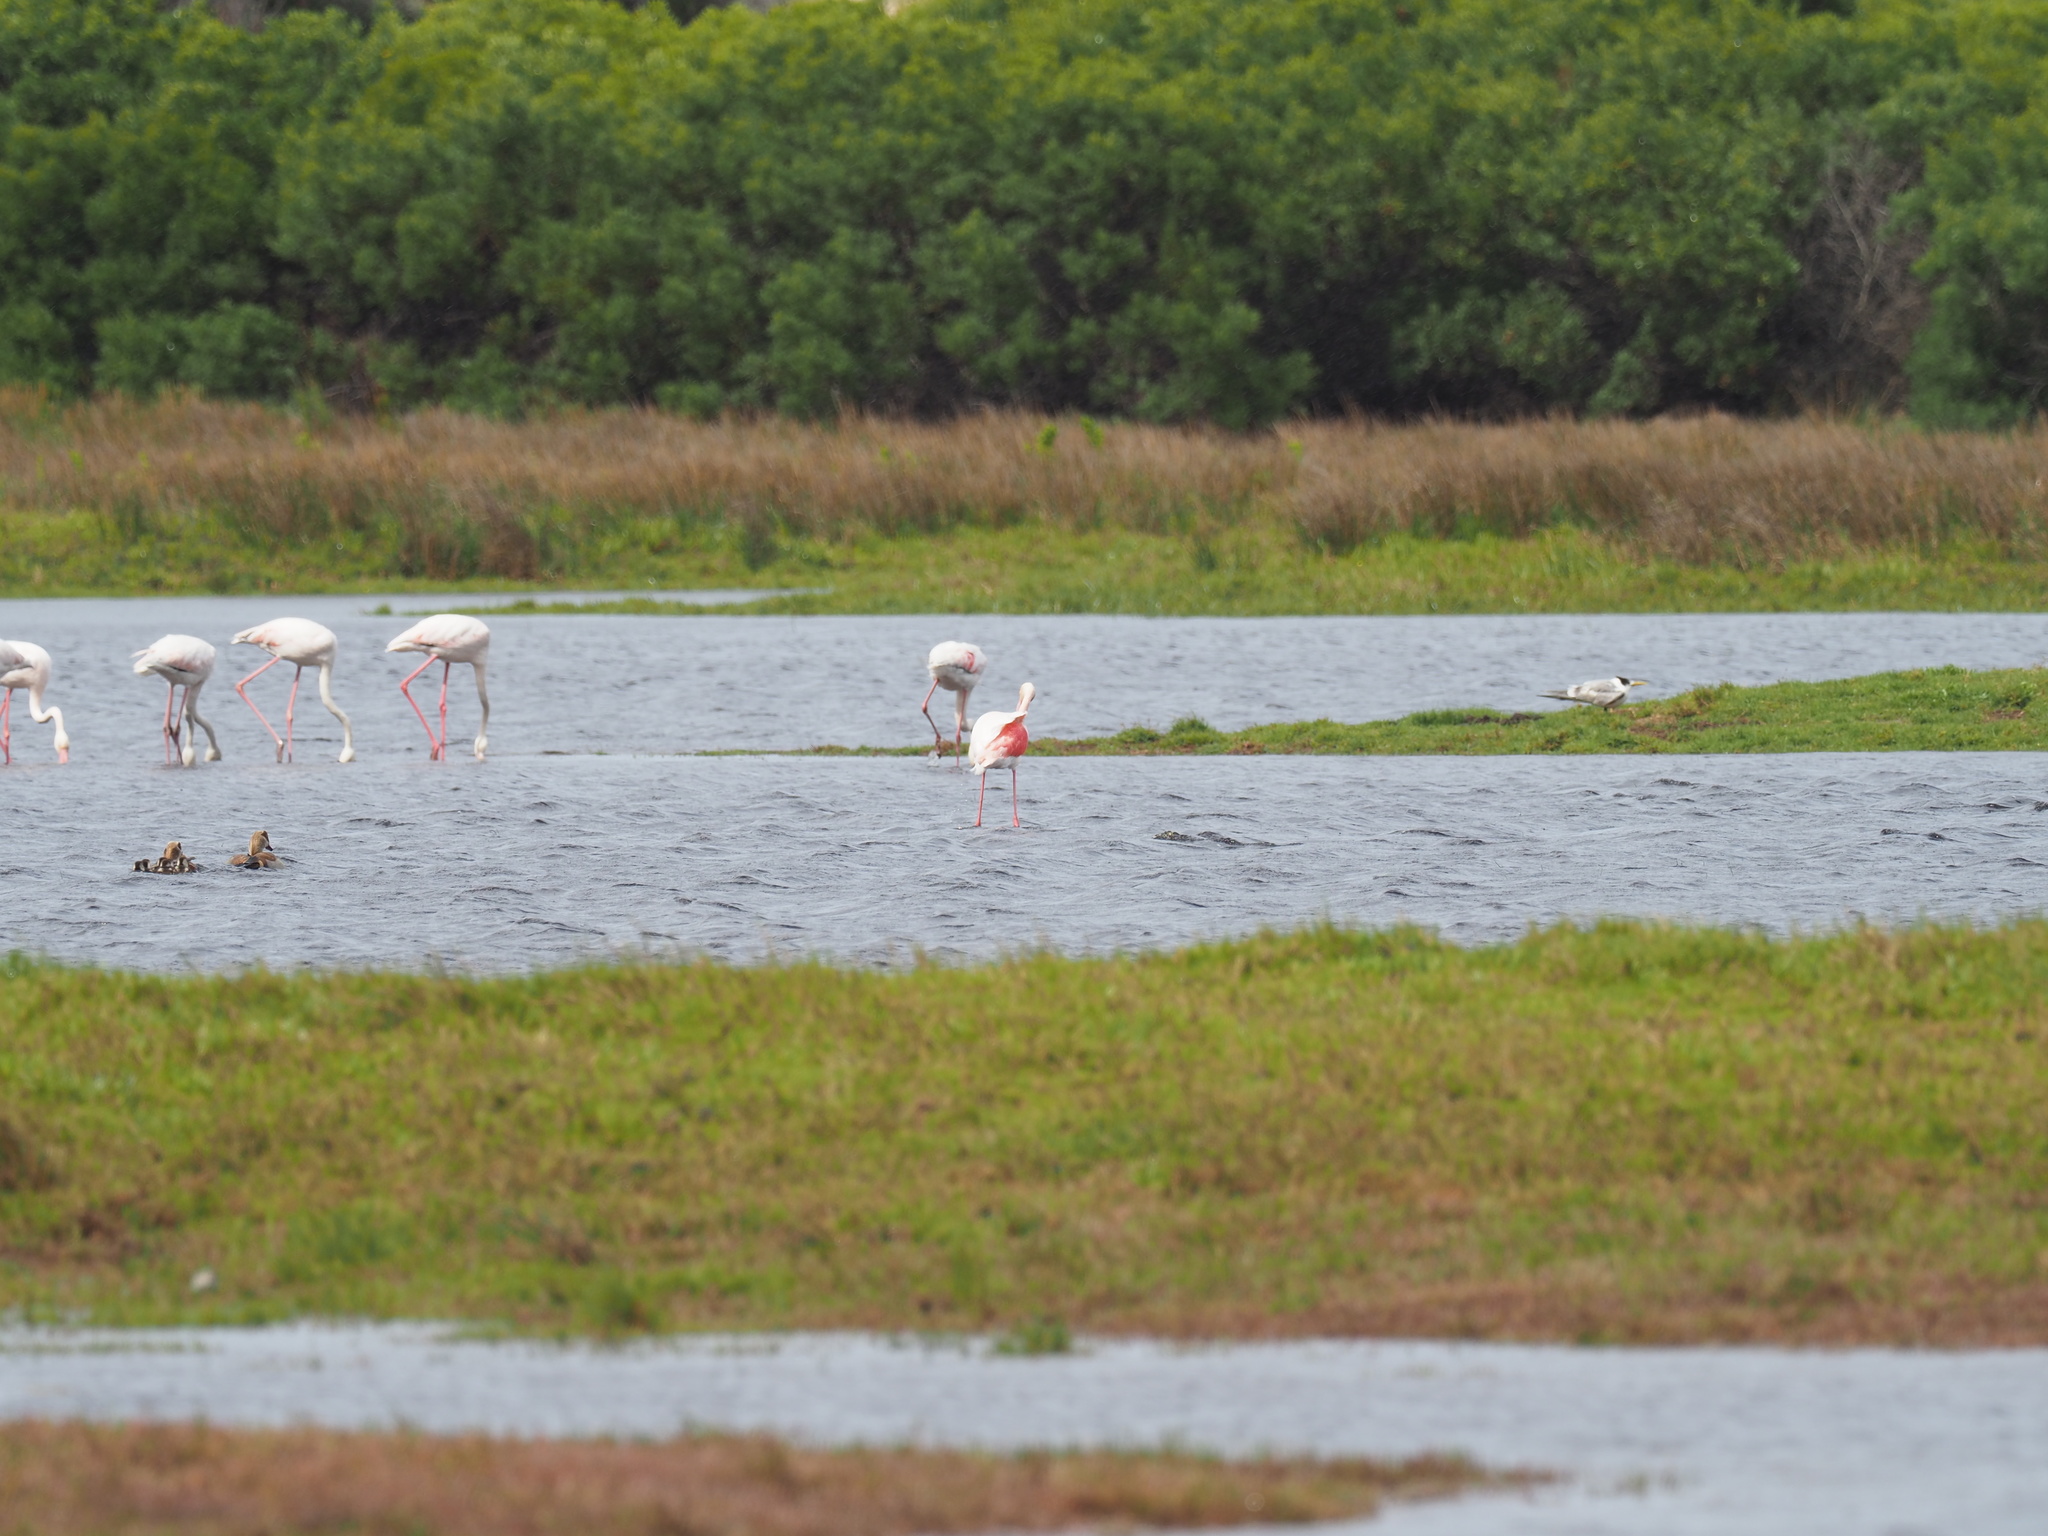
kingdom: Animalia
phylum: Chordata
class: Aves
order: Phoenicopteriformes
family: Phoenicopteridae
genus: Phoenicopterus
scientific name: Phoenicopterus roseus
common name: Greater flamingo
